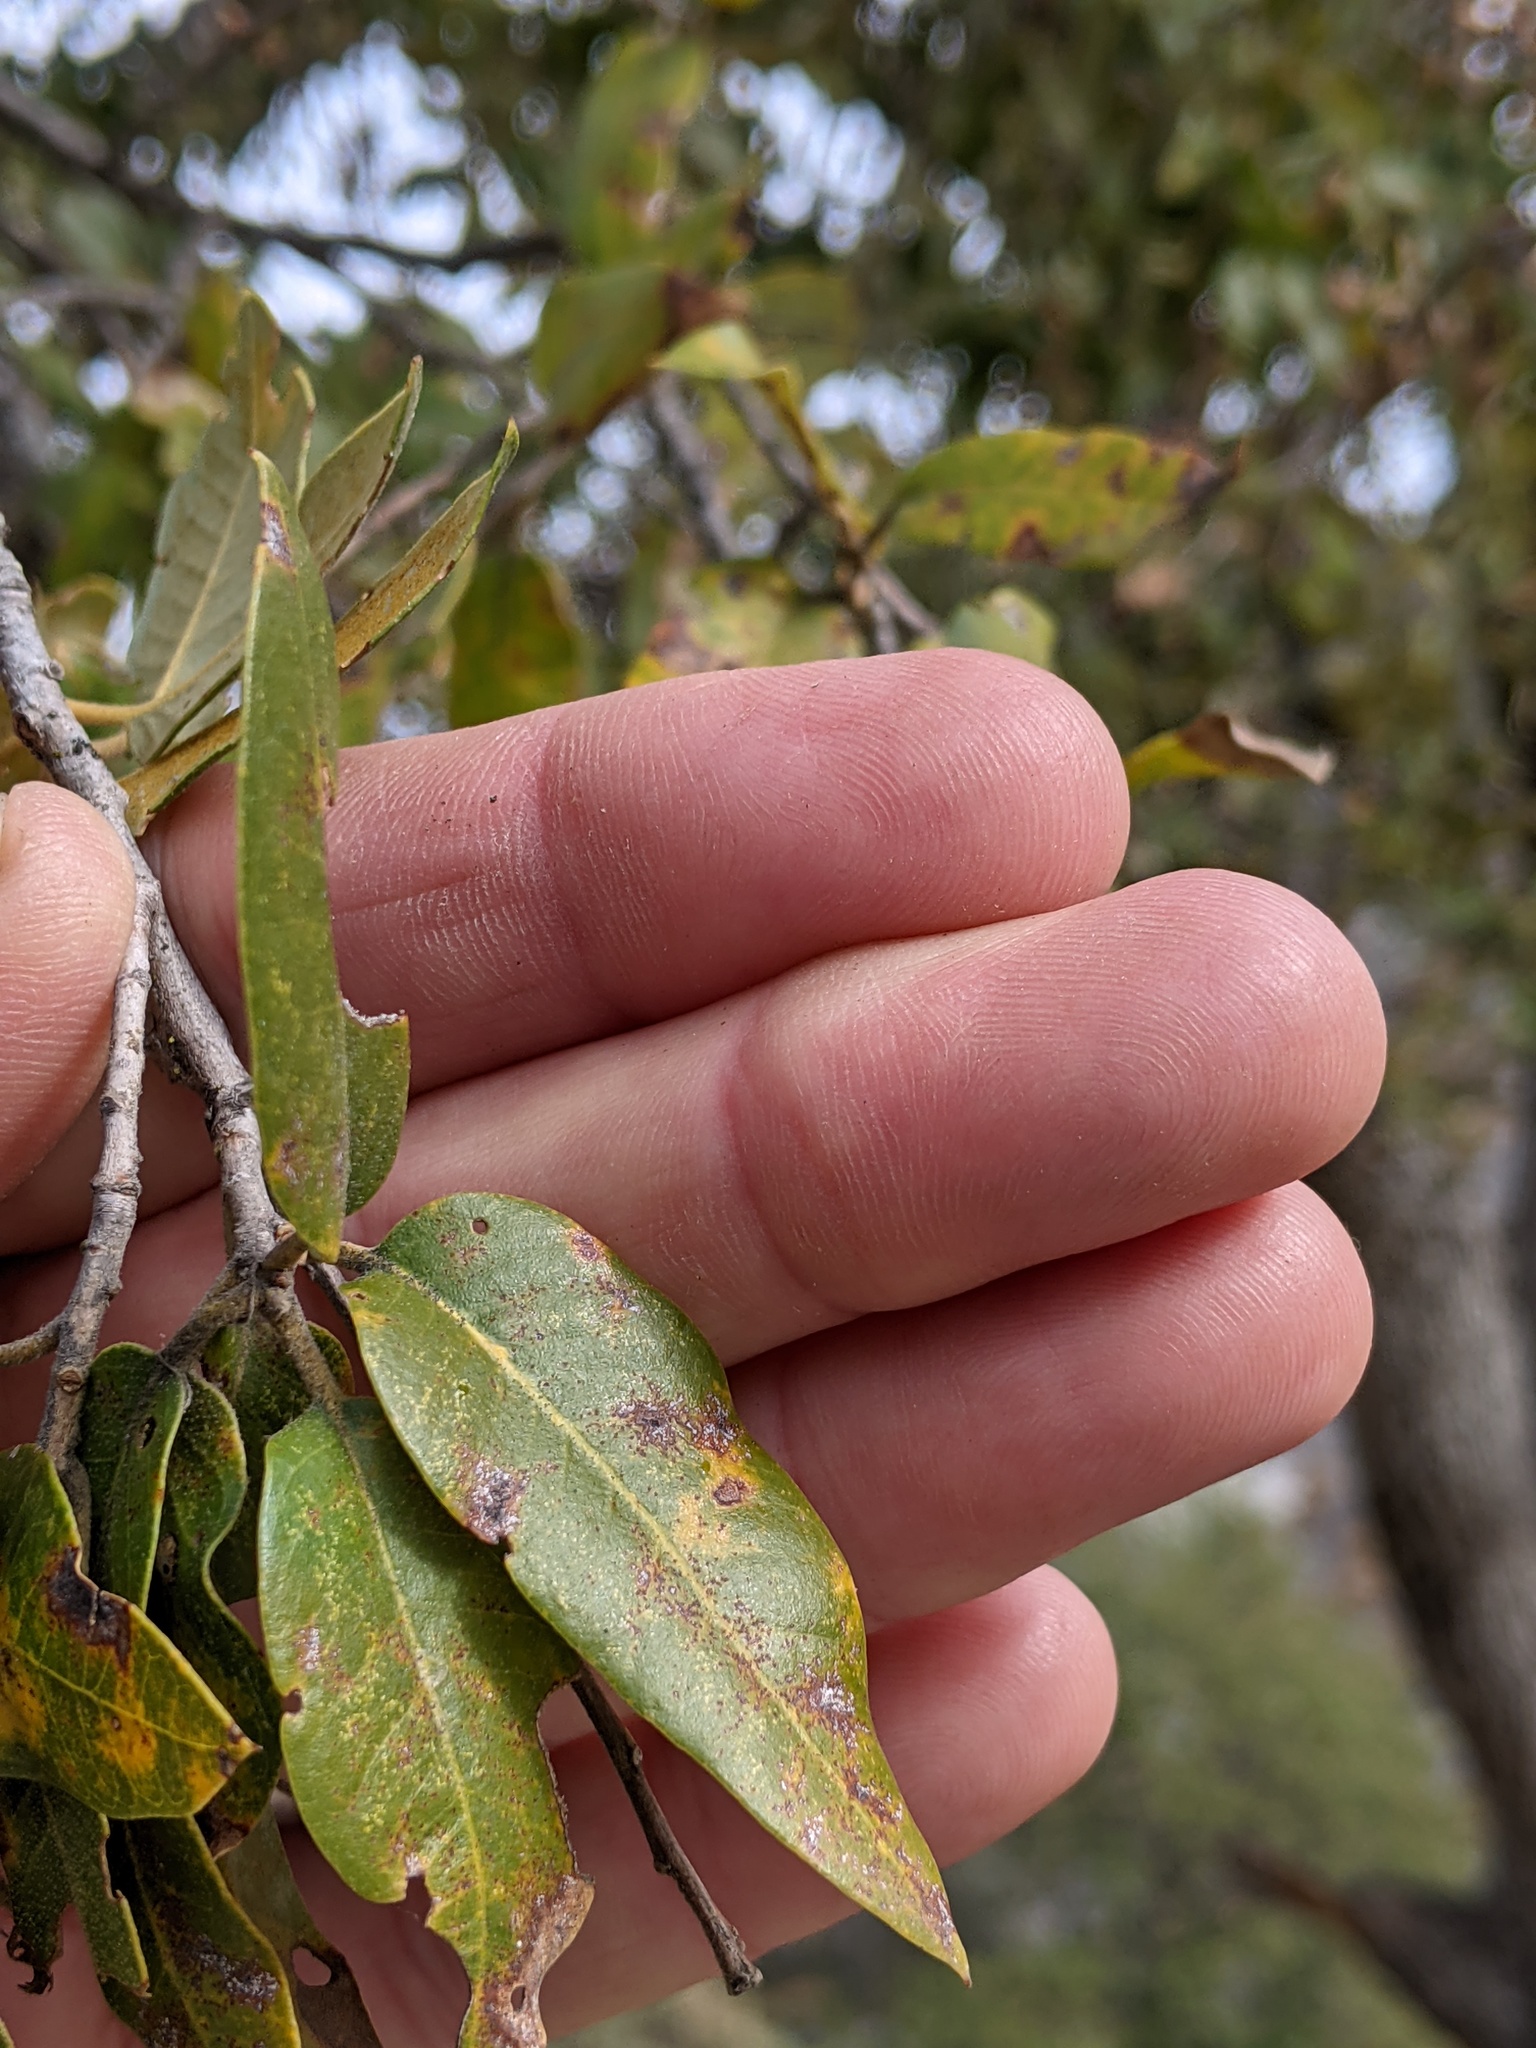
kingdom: Plantae
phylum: Tracheophyta
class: Magnoliopsida
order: Fagales
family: Fagaceae
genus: Quercus
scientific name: Quercus chrysolepis
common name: Canyon live oak
